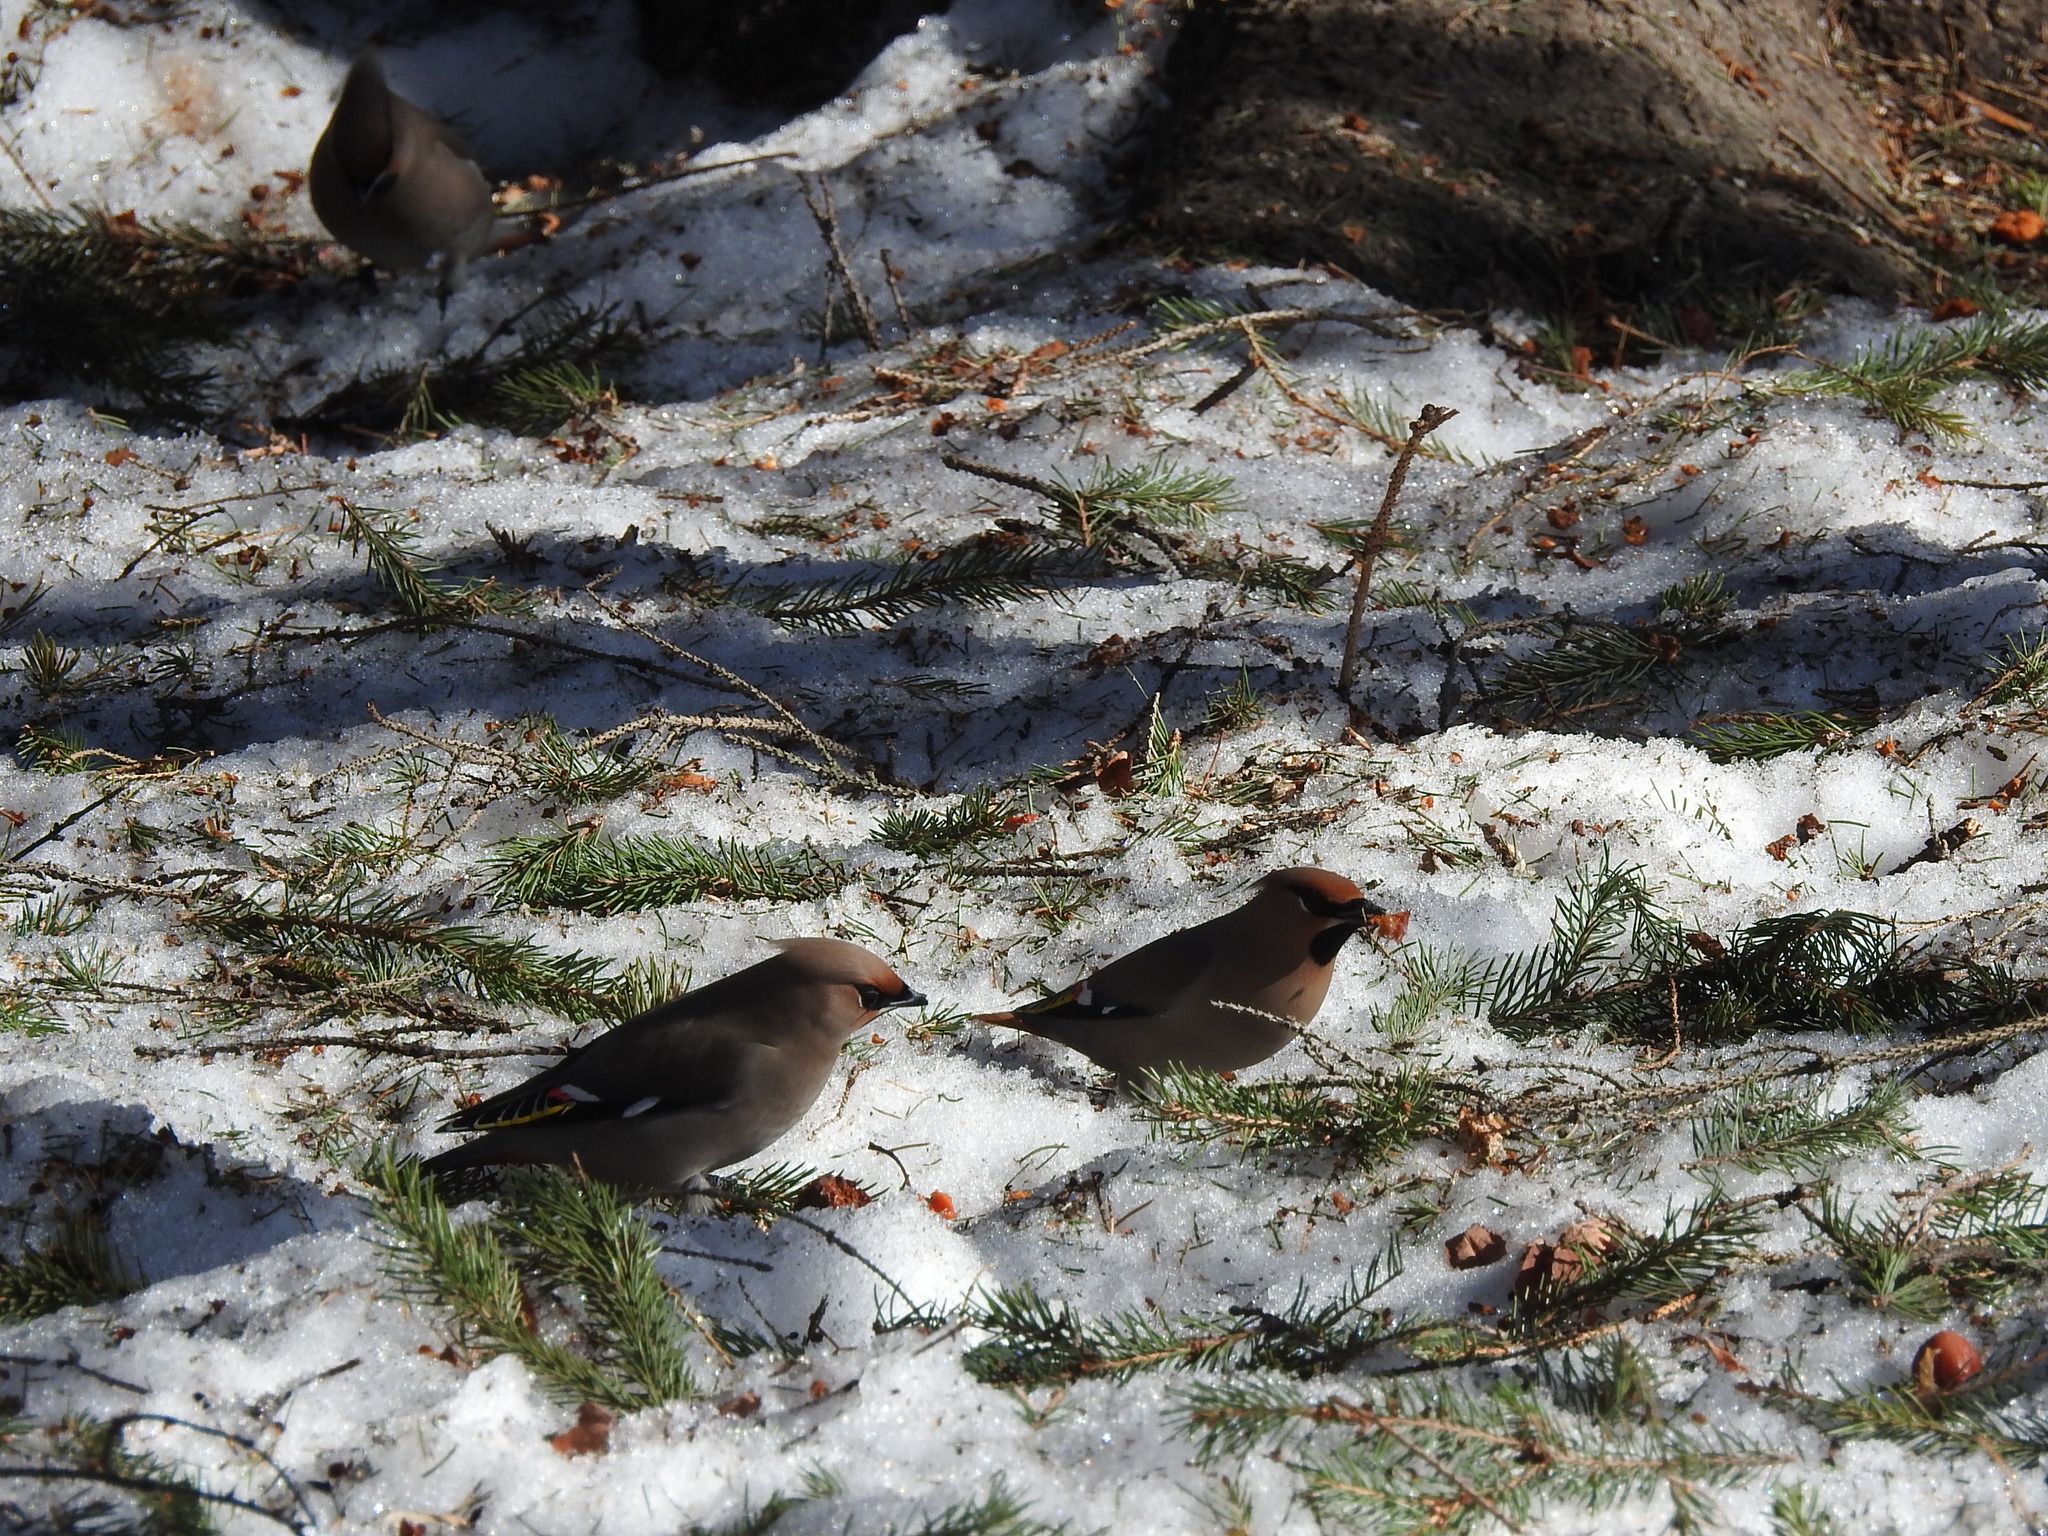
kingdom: Animalia
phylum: Chordata
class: Aves
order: Passeriformes
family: Bombycillidae
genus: Bombycilla
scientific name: Bombycilla garrulus
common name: Bohemian waxwing
